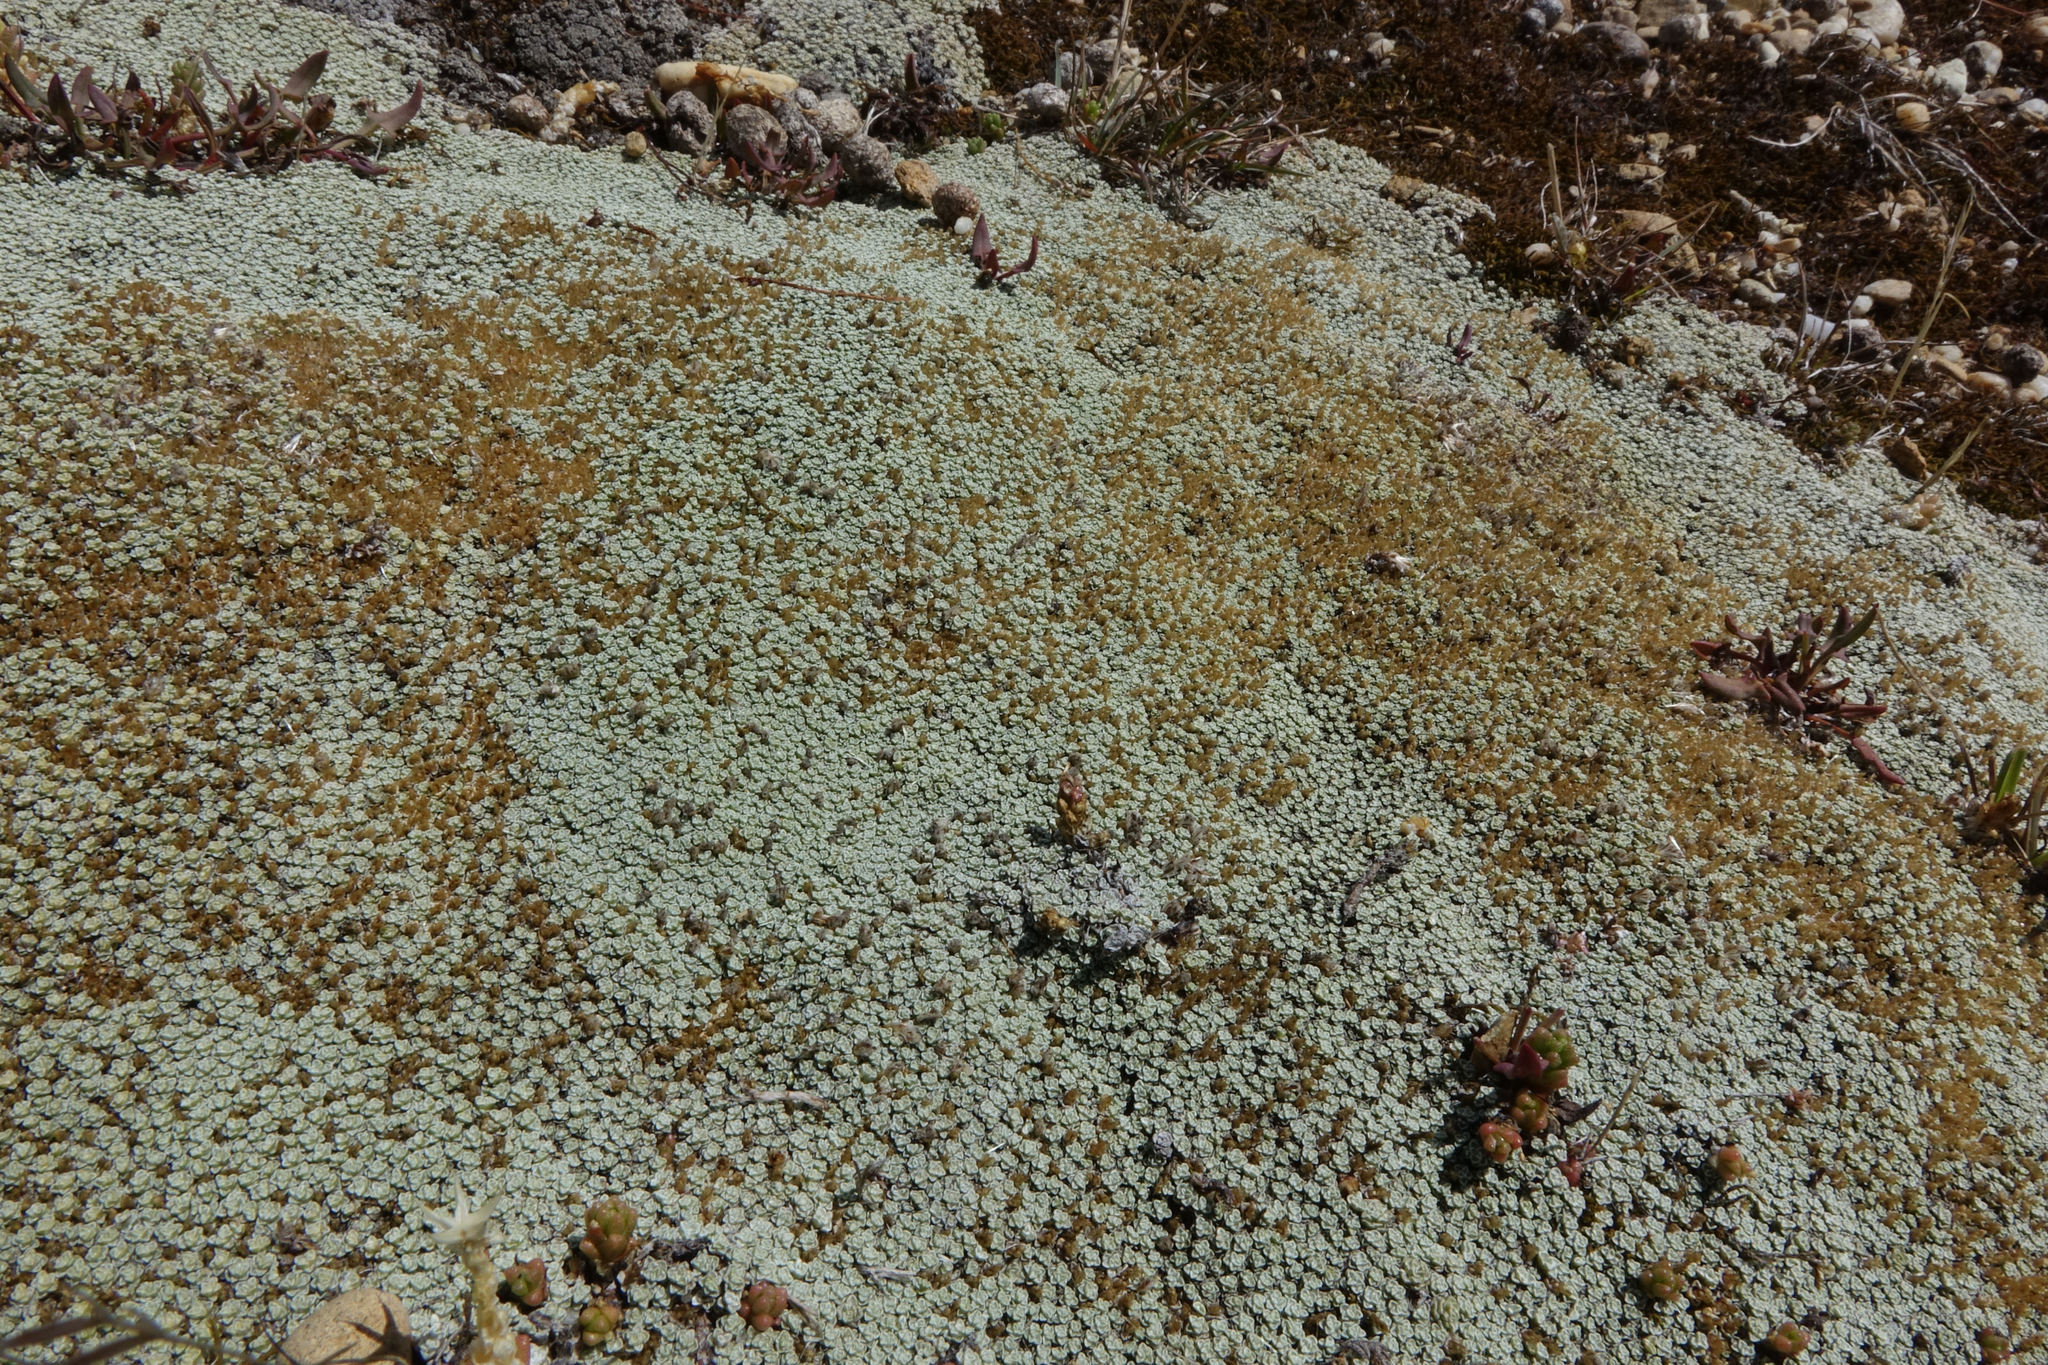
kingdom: Plantae
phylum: Tracheophyta
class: Magnoliopsida
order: Asterales
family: Asteraceae
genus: Raoulia
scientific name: Raoulia australis
